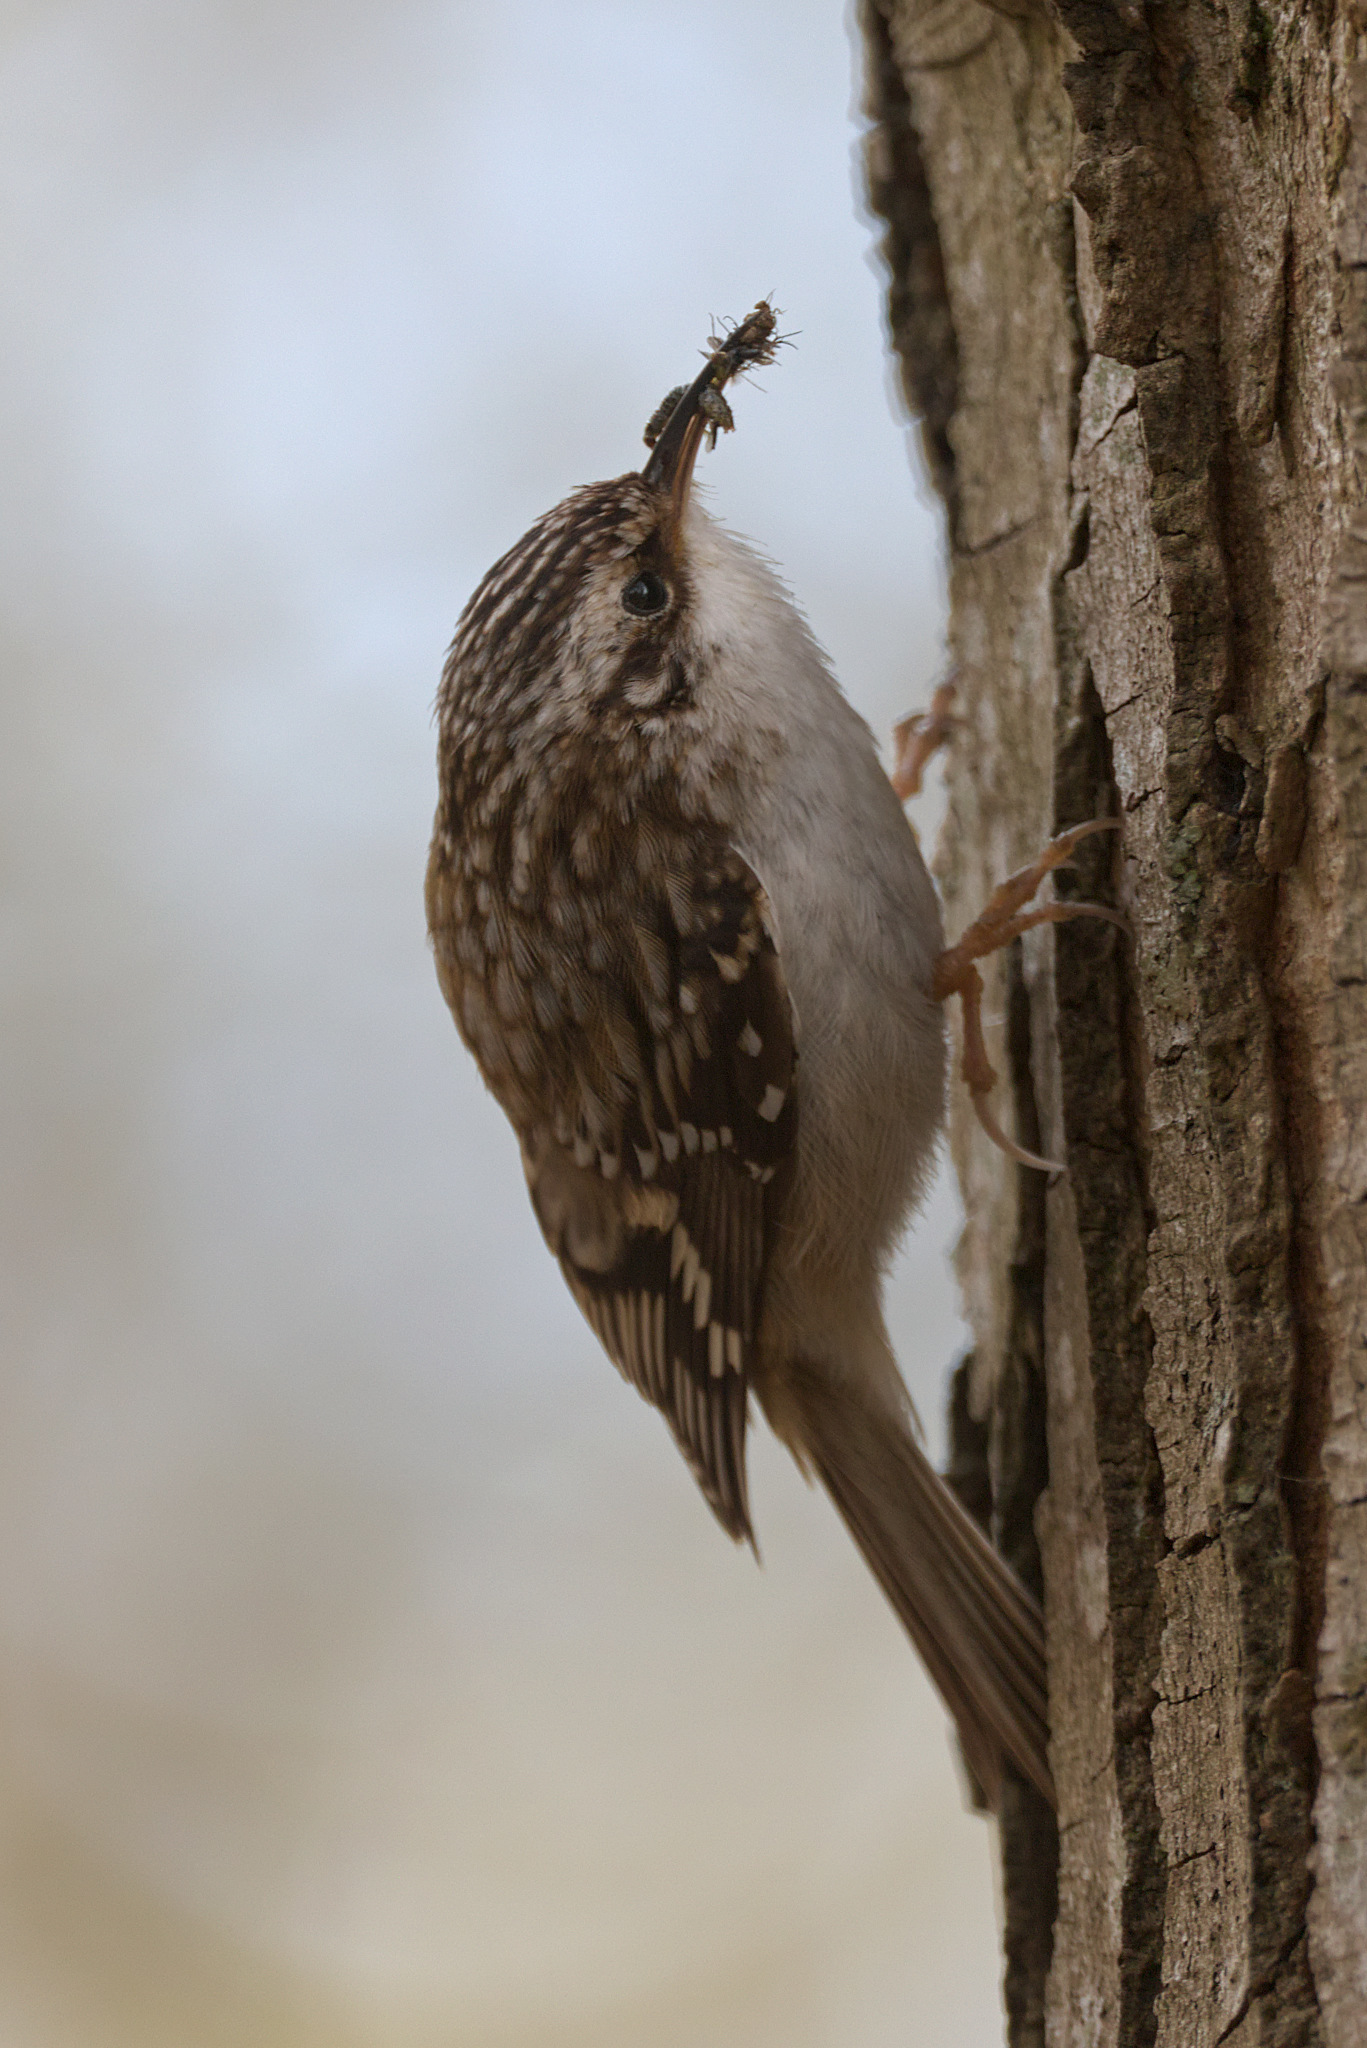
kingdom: Animalia
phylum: Chordata
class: Aves
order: Passeriformes
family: Certhiidae
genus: Certhia
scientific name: Certhia americana
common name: Brown creeper
